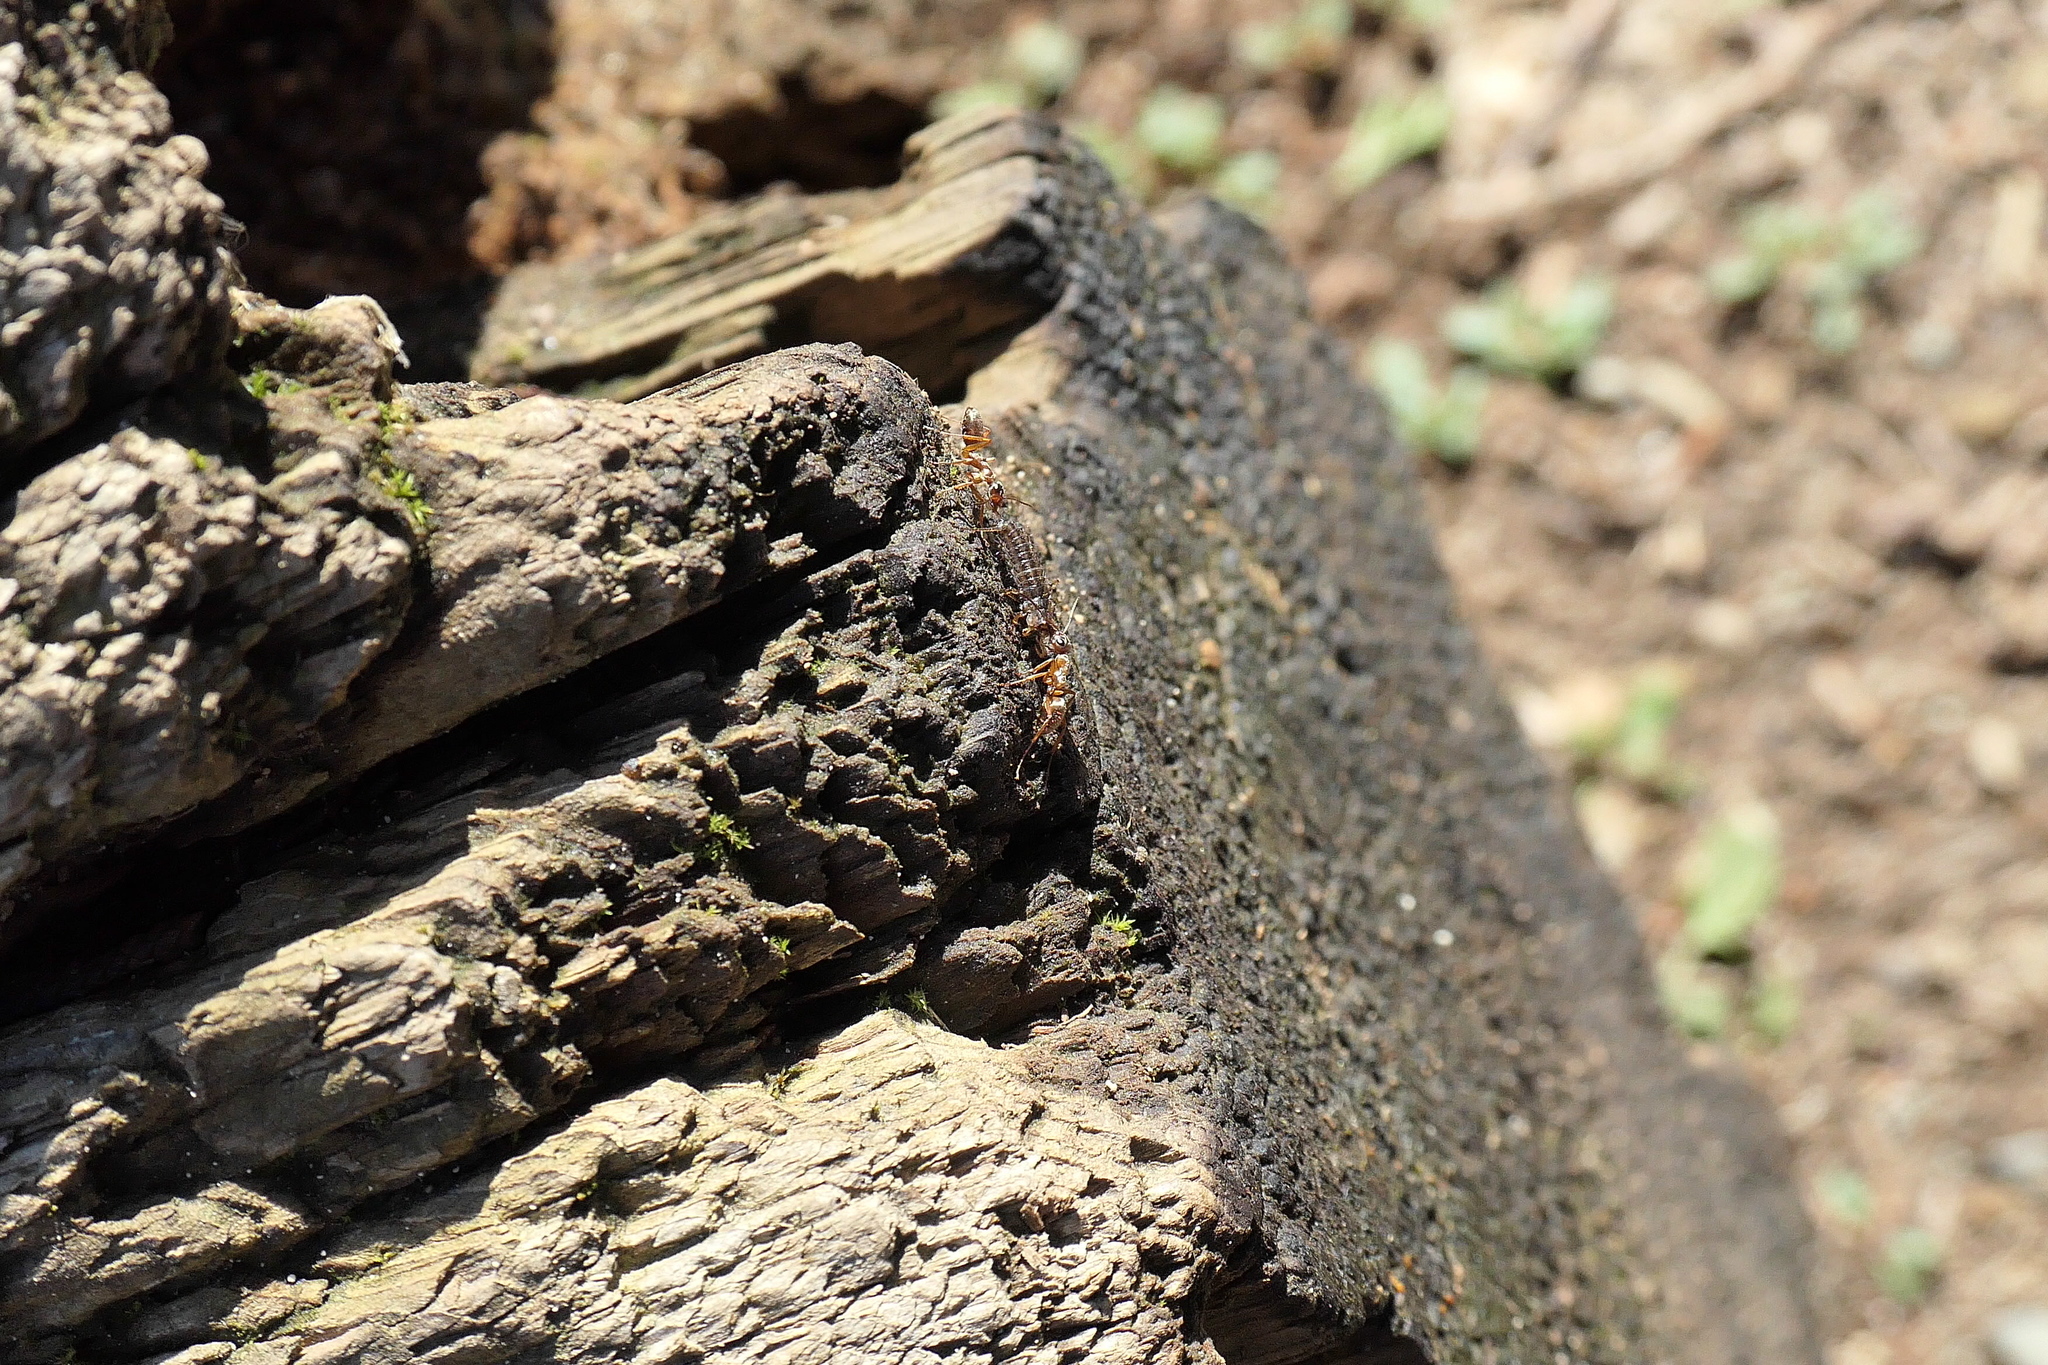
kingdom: Animalia
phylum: Arthropoda
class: Insecta
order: Hymenoptera
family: Formicidae
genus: Formica
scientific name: Formica pacifica
